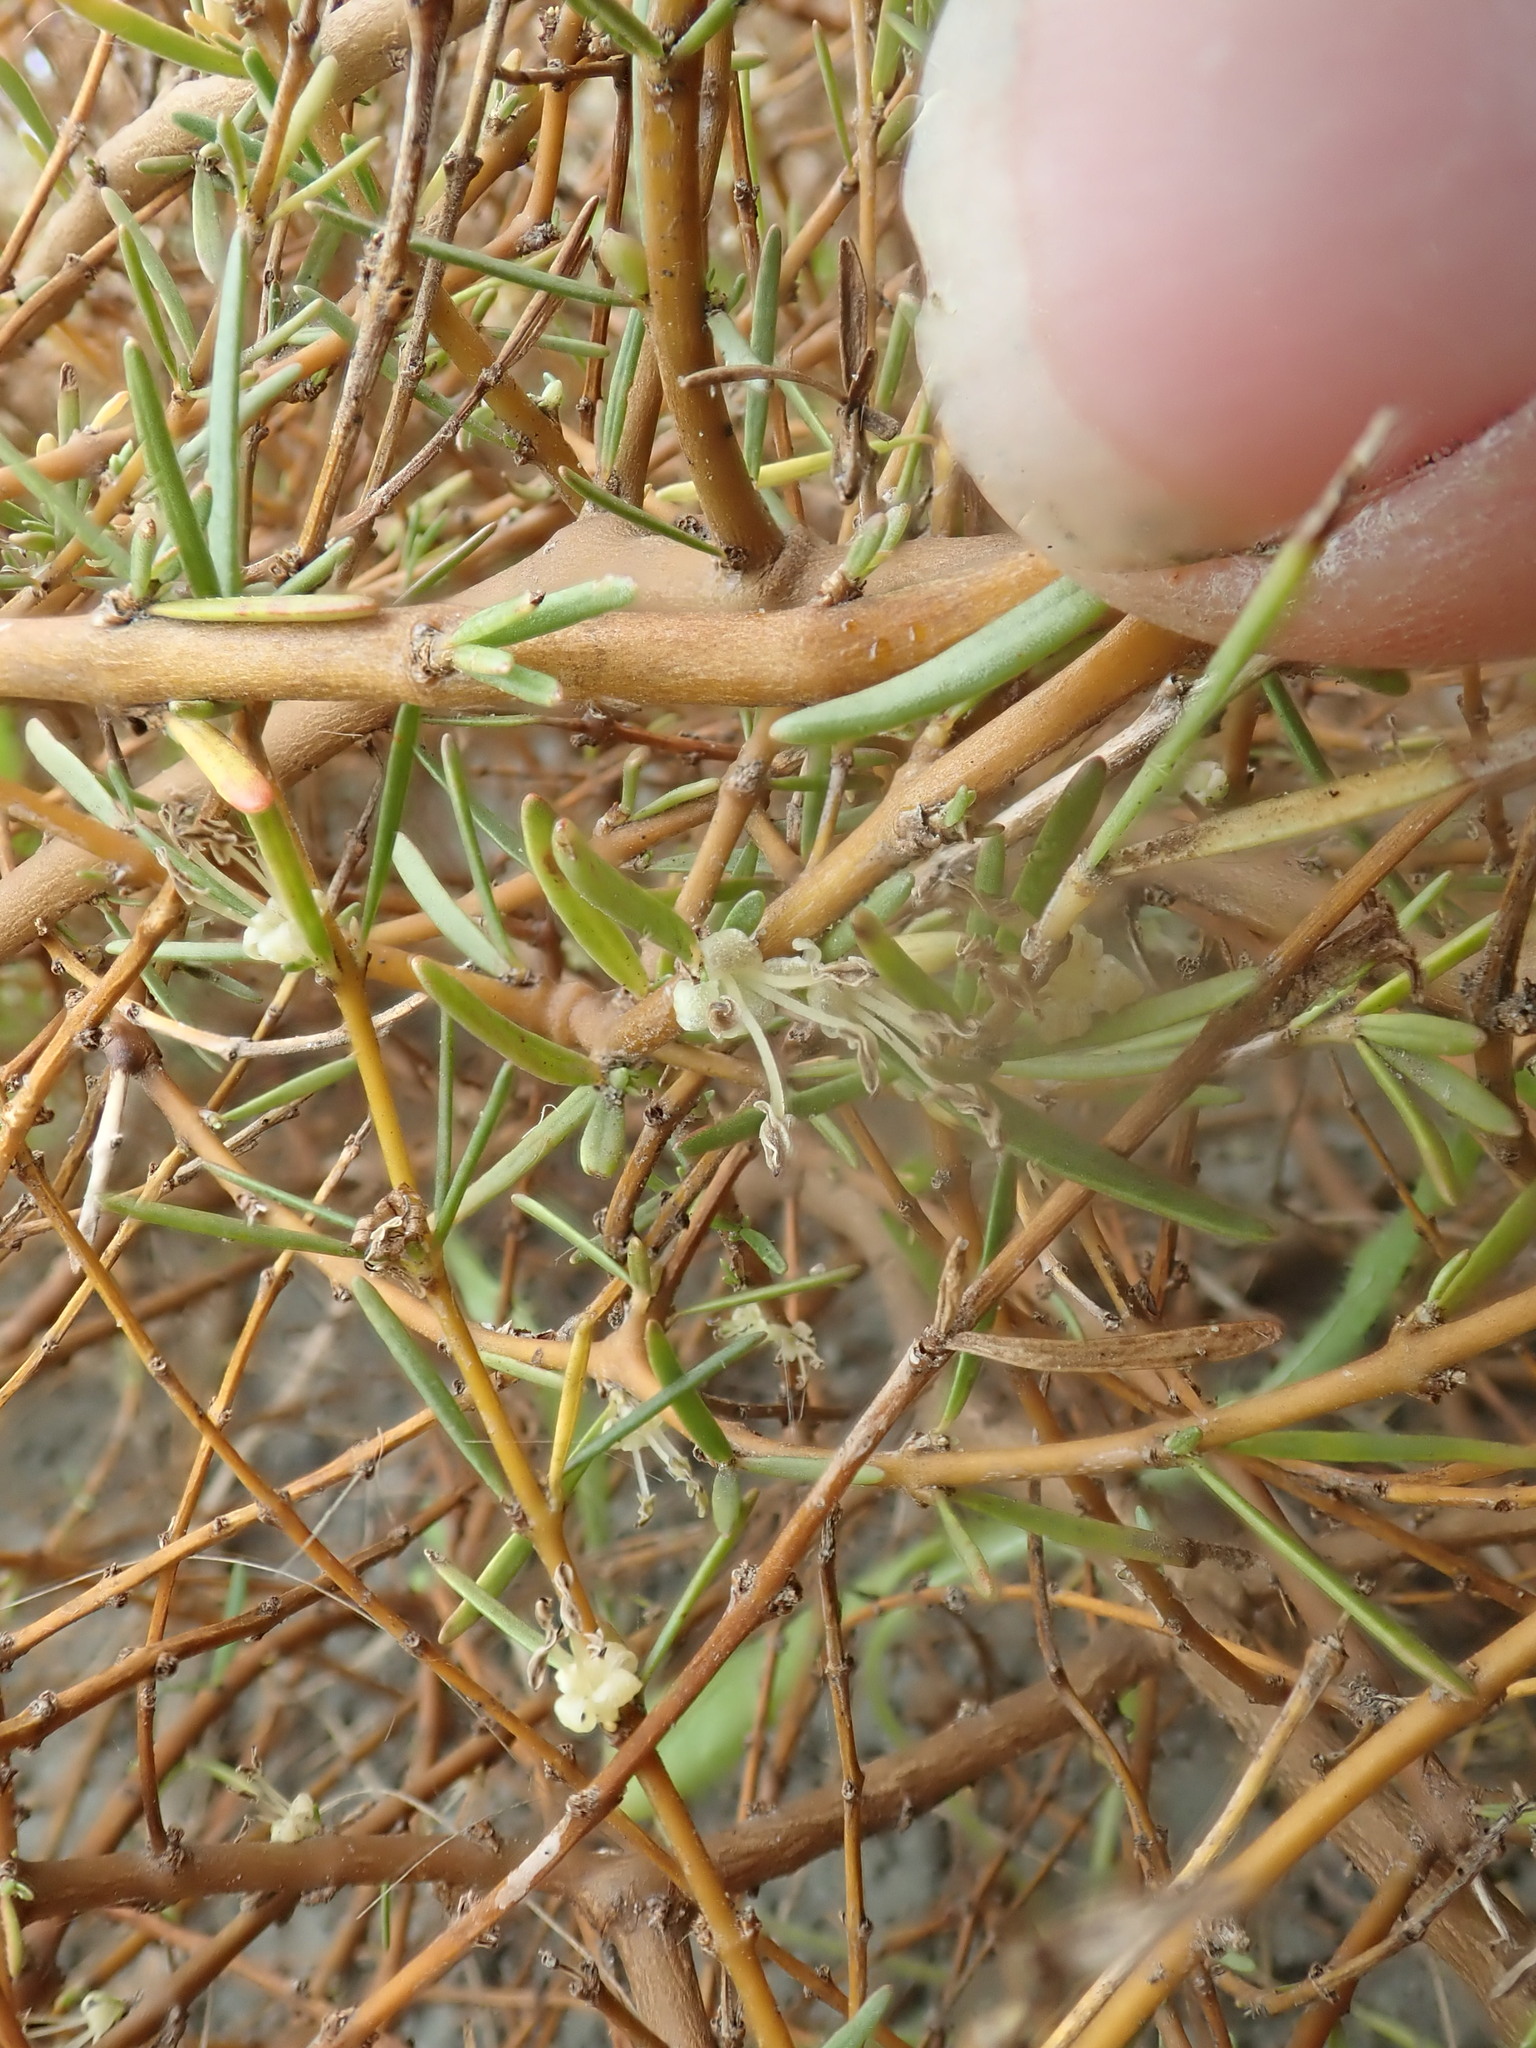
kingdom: Plantae
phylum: Tracheophyta
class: Magnoliopsida
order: Gentianales
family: Rubiaceae
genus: Coprosma
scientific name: Coprosma acerosa
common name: Sand coprosma
